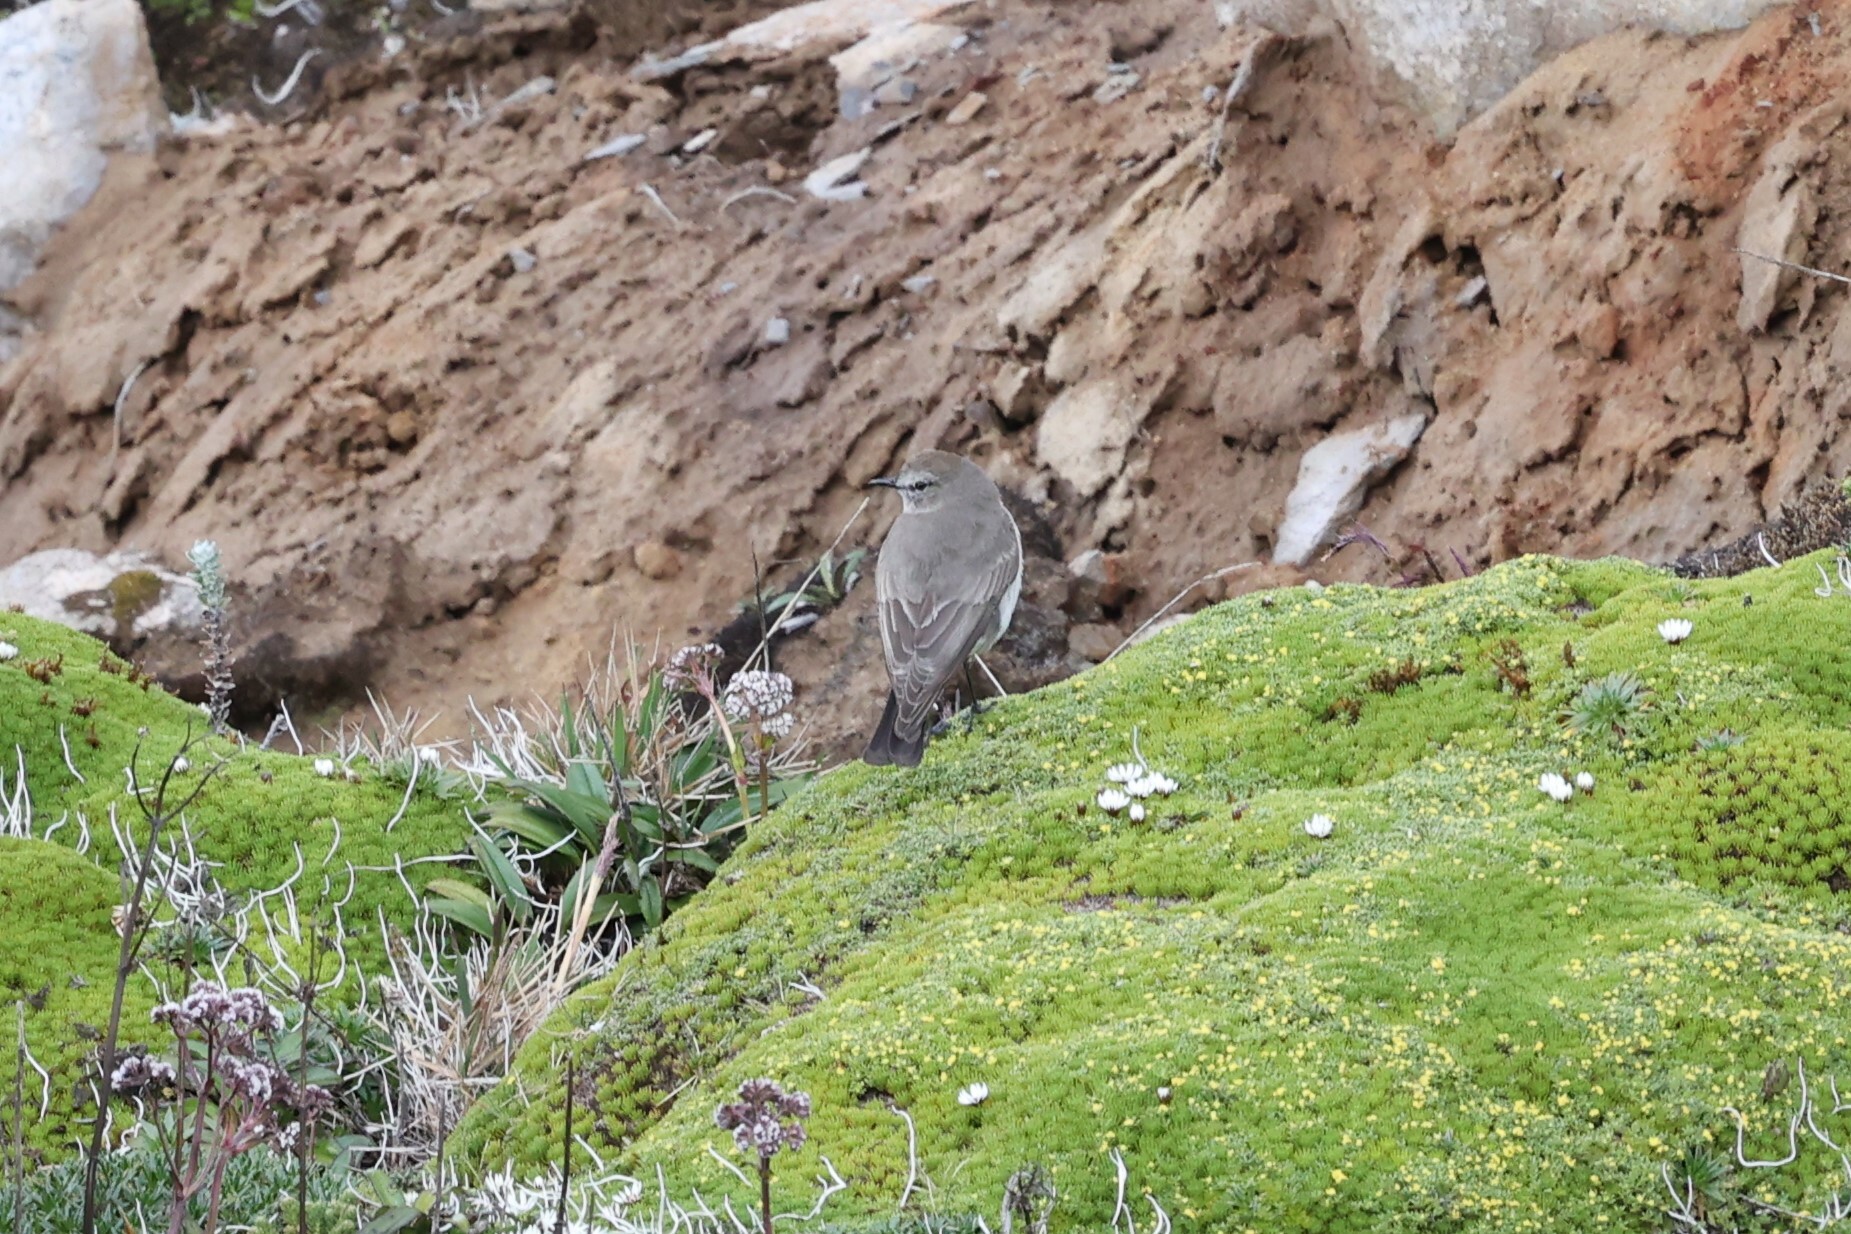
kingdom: Animalia
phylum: Chordata
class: Aves
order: Passeriformes
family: Tyrannidae
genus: Muscisaxicola
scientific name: Muscisaxicola alpinus
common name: Paramo ground tyrant
